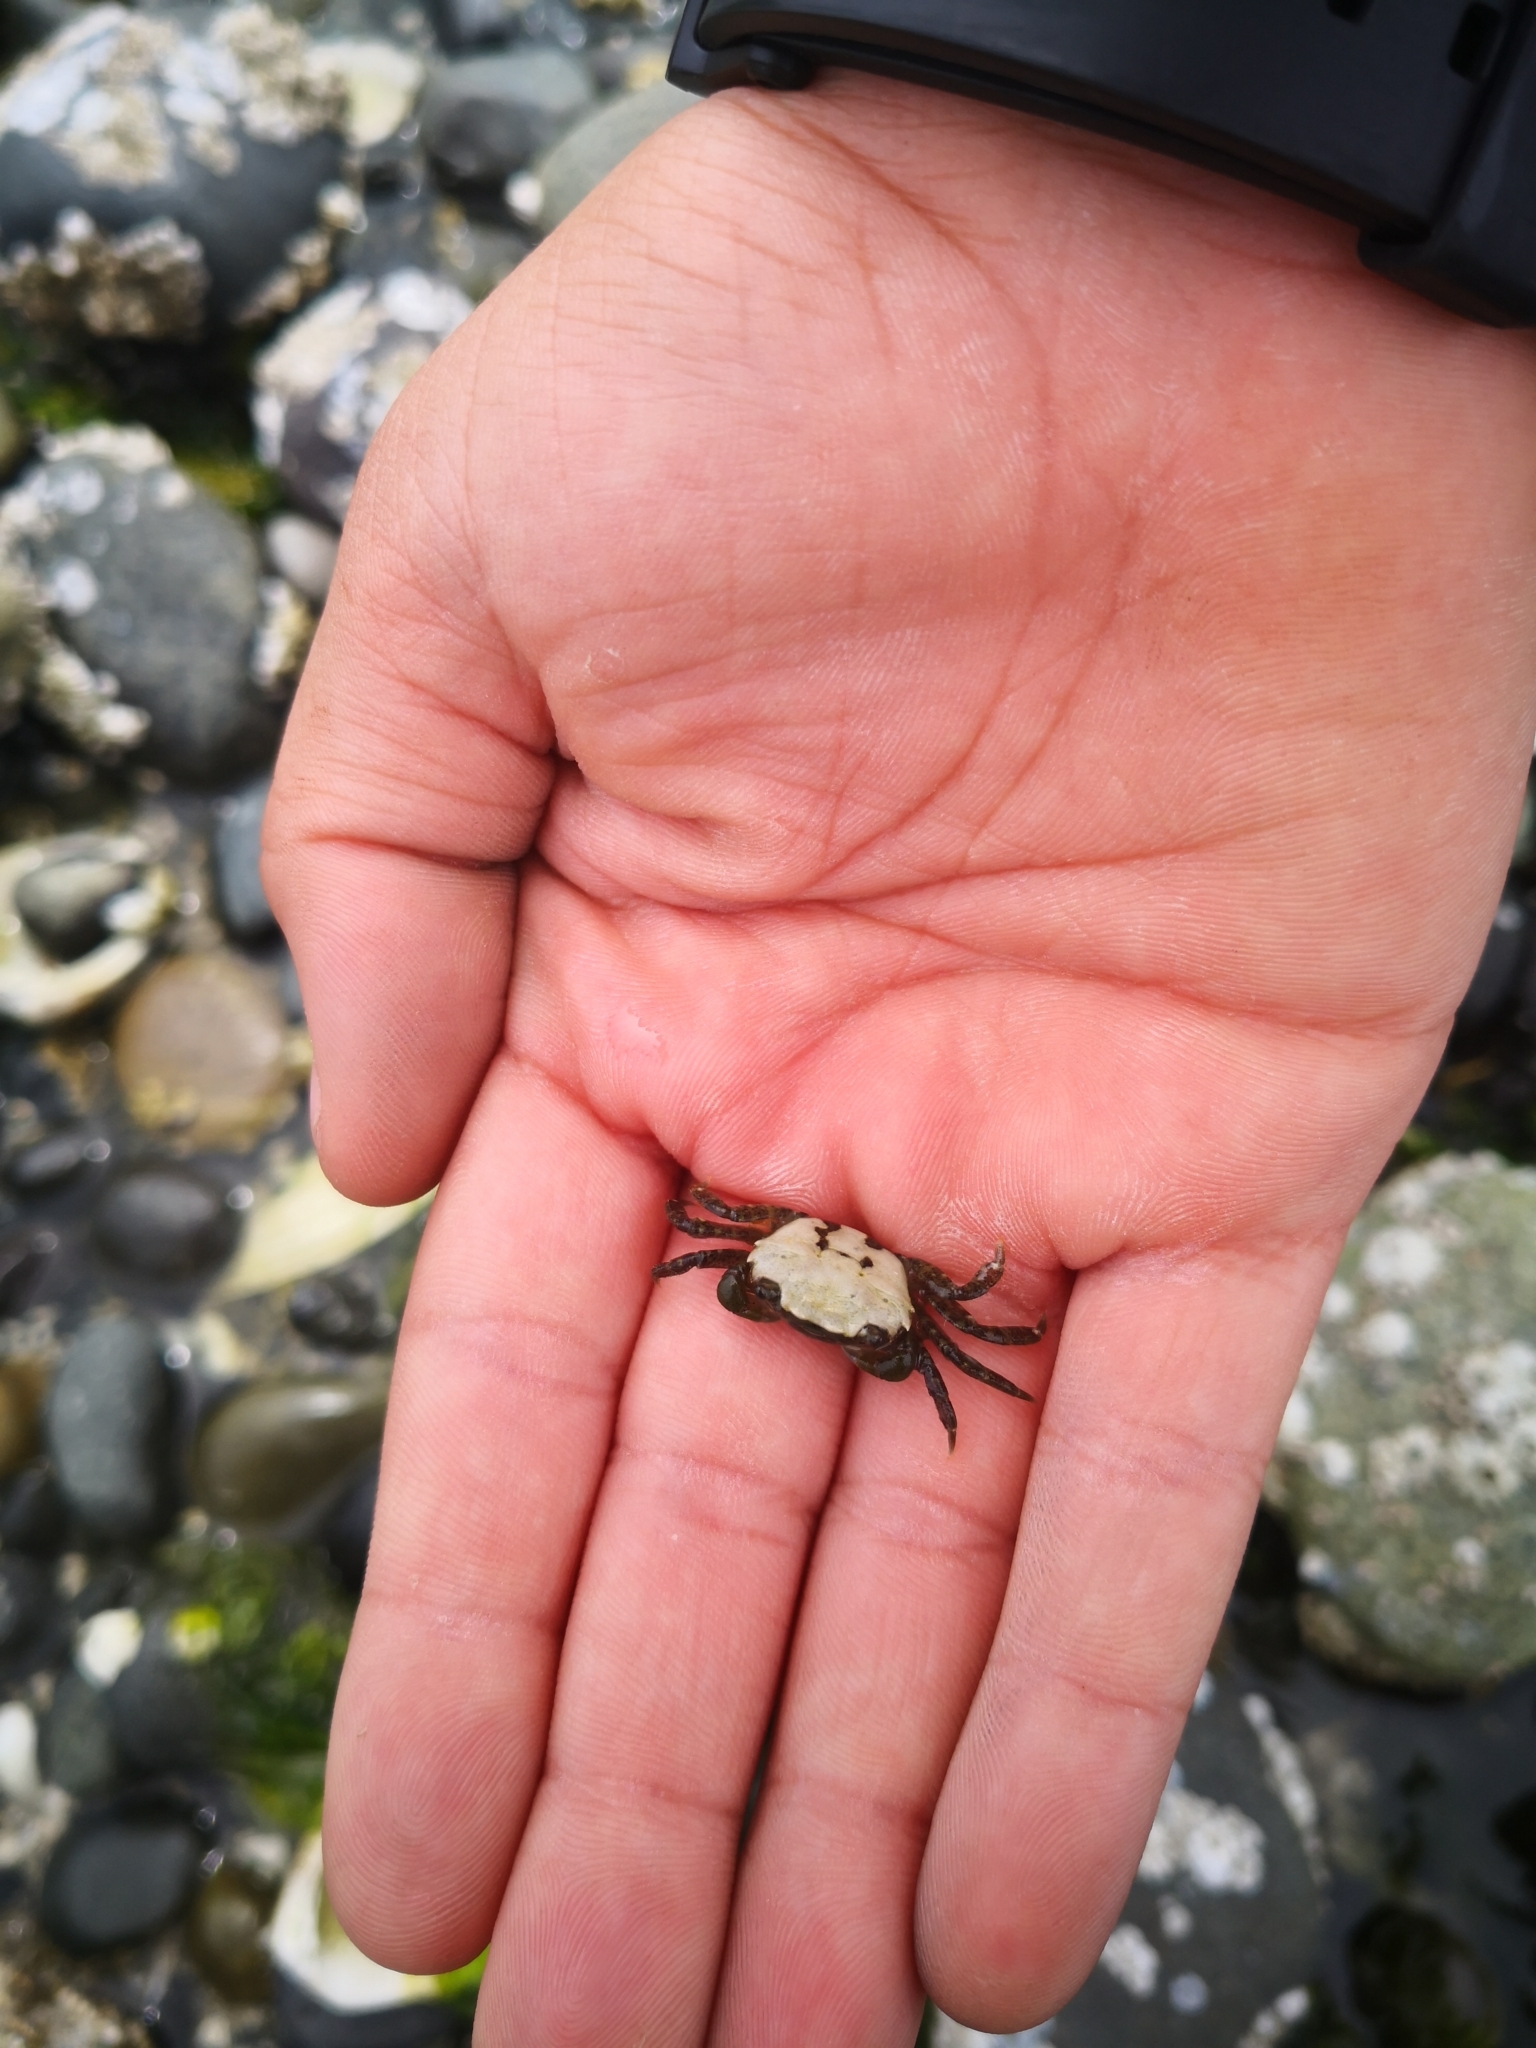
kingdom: Animalia
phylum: Arthropoda
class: Malacostraca
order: Decapoda
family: Varunidae
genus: Hemigrapsus
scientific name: Hemigrapsus oregonensis
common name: Yellow shore crab
